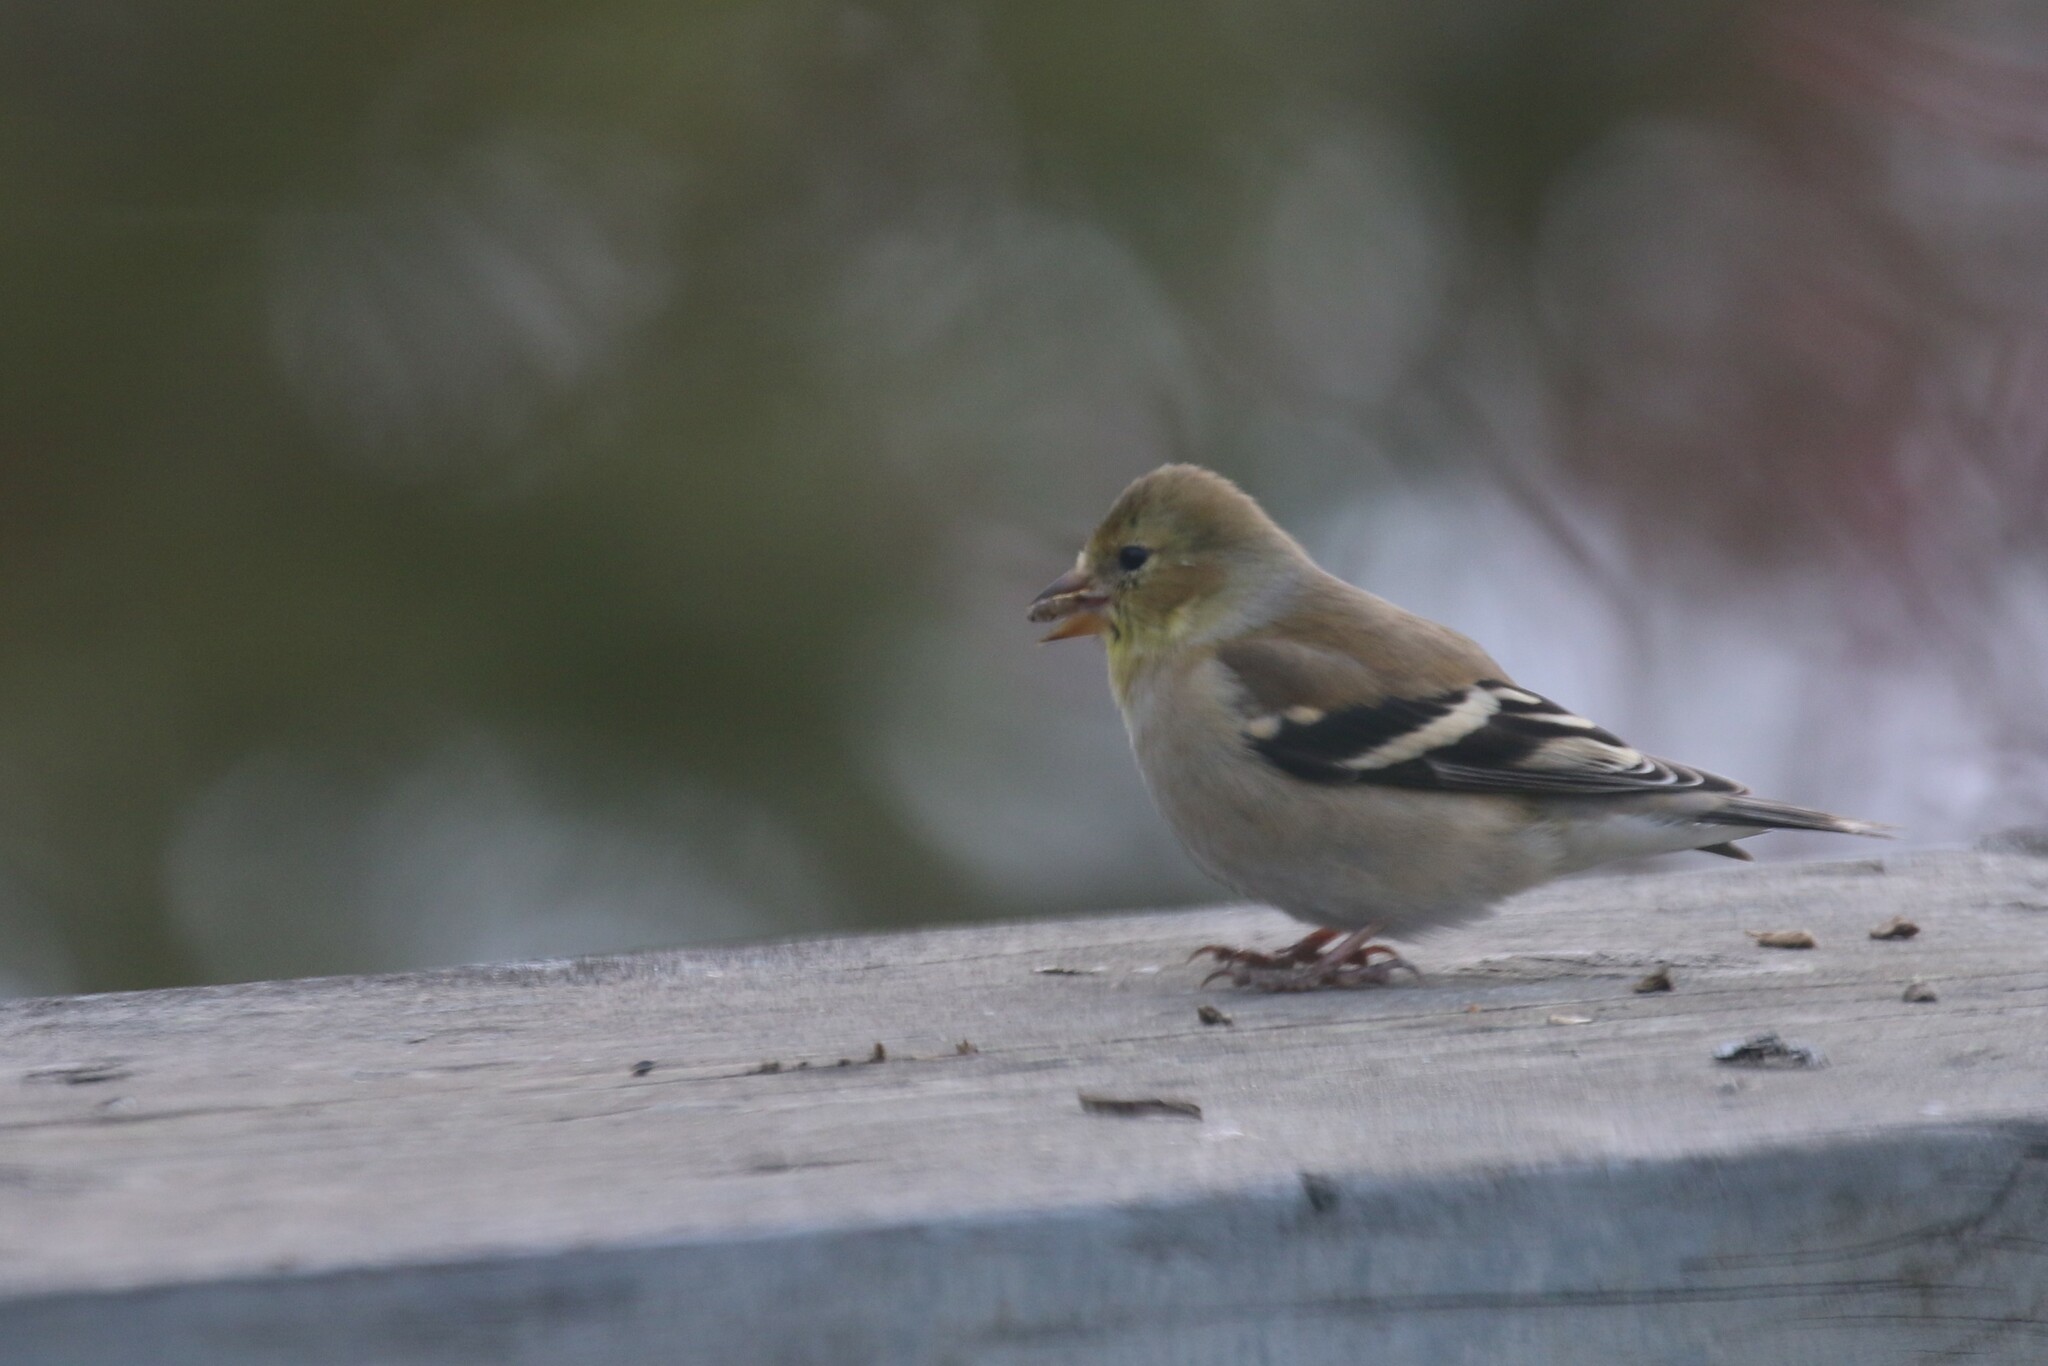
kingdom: Animalia
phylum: Chordata
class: Aves
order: Passeriformes
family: Fringillidae
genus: Spinus
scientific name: Spinus tristis
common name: American goldfinch
